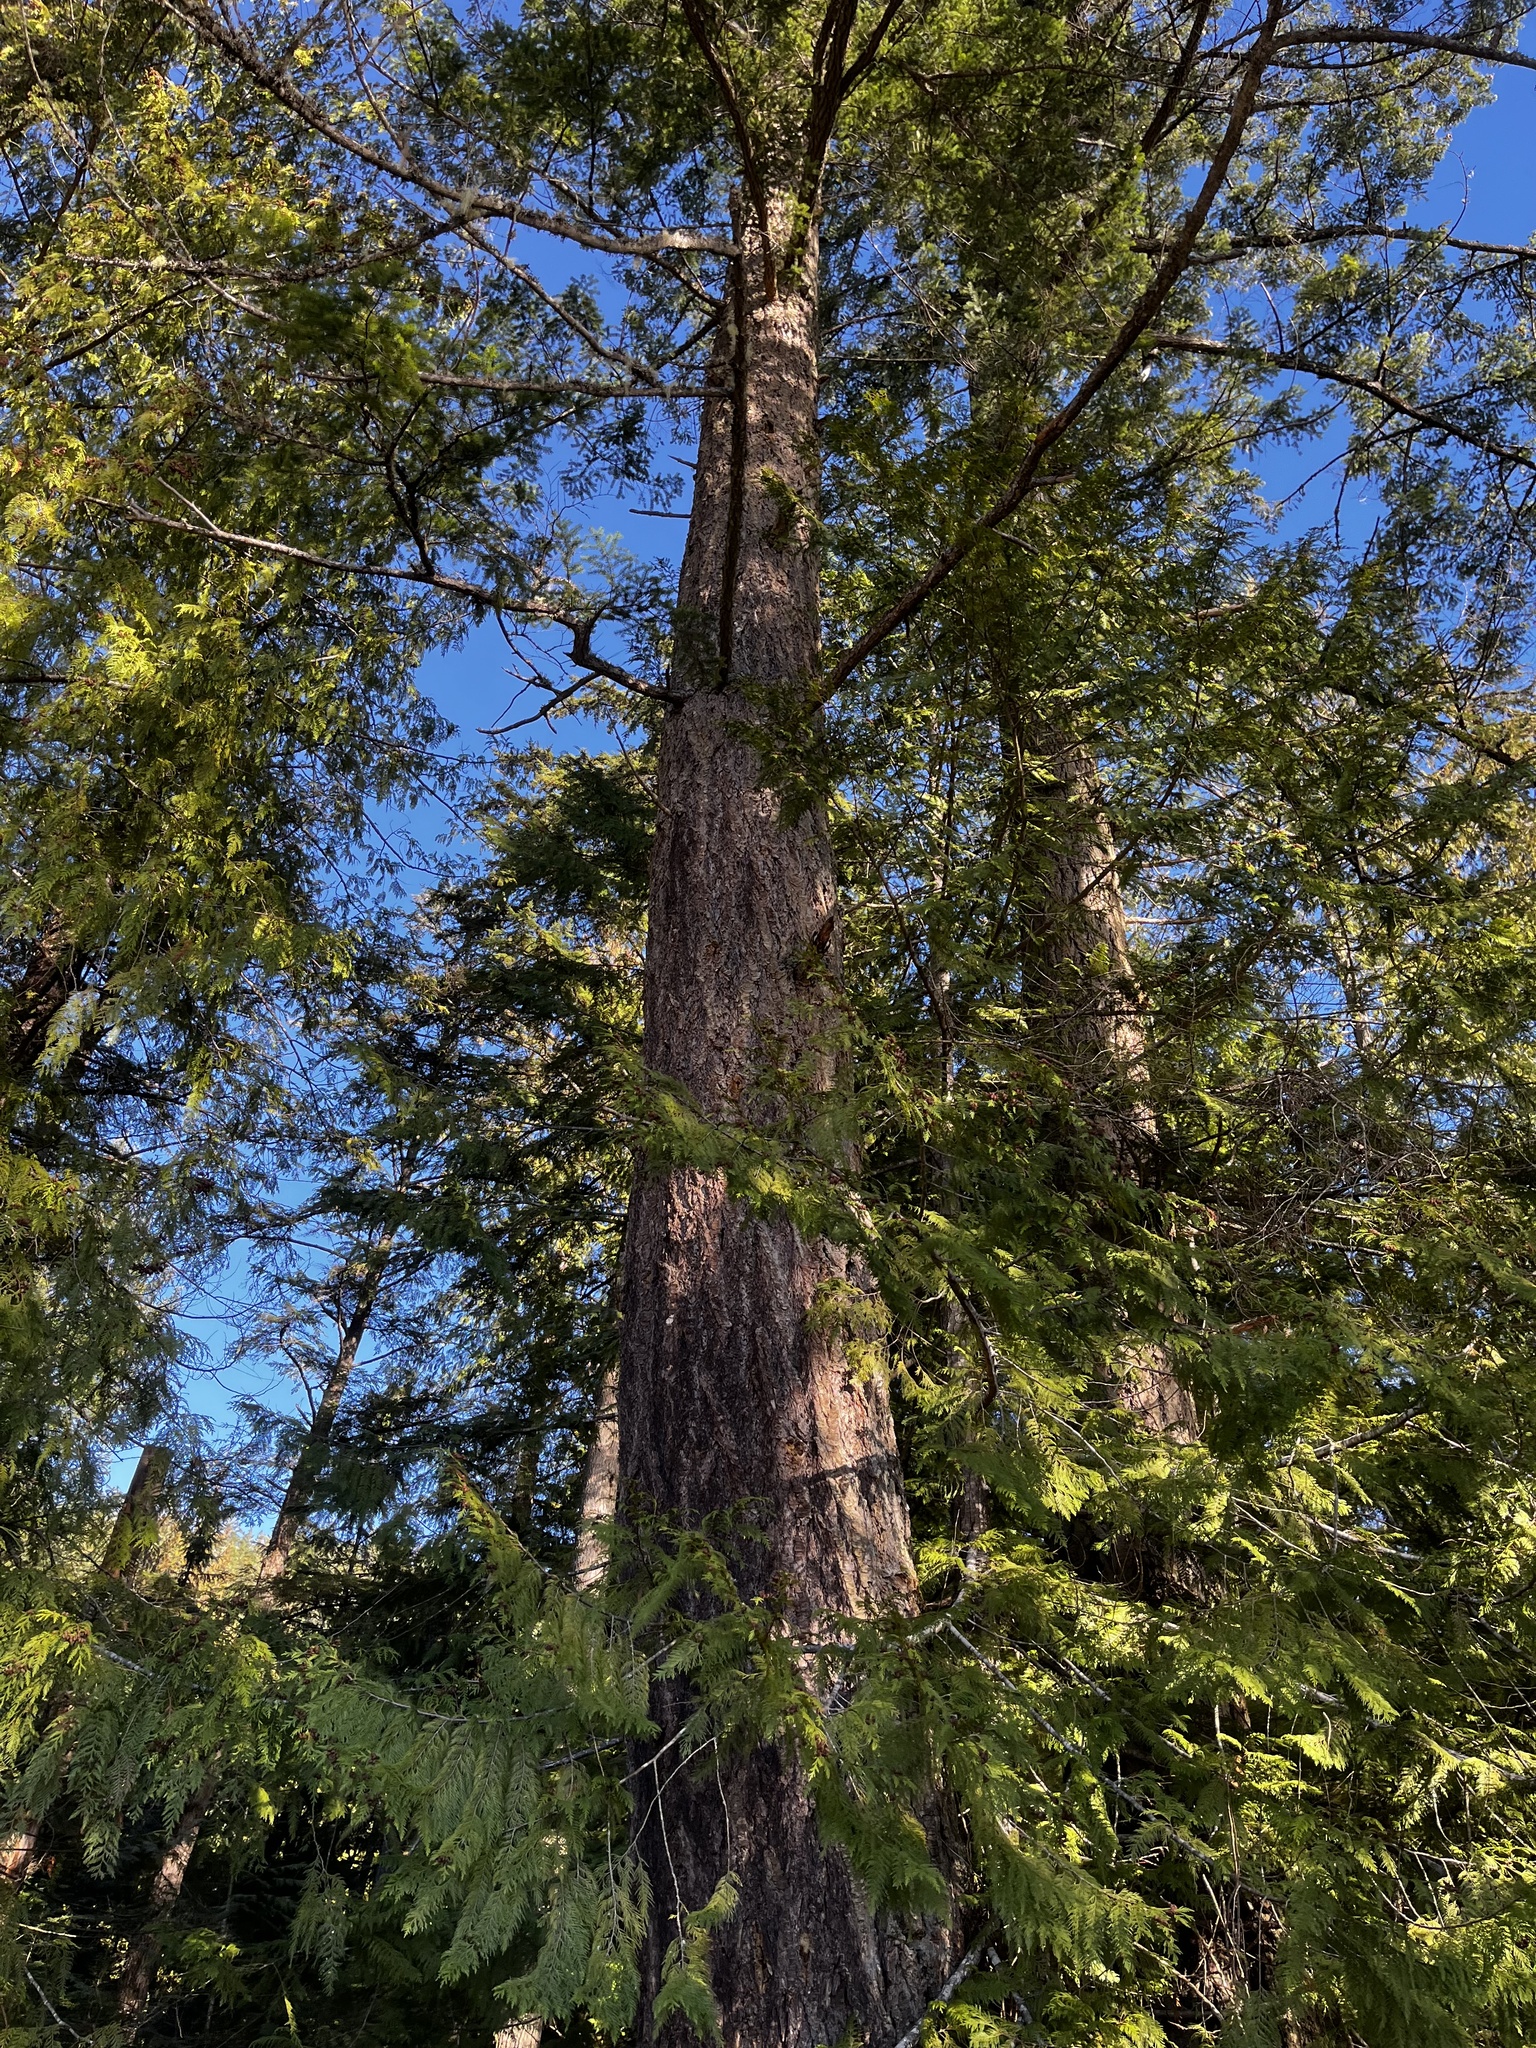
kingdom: Plantae
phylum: Tracheophyta
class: Pinopsida
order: Pinales
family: Pinaceae
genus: Pseudotsuga
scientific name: Pseudotsuga menziesii
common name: Douglas fir
